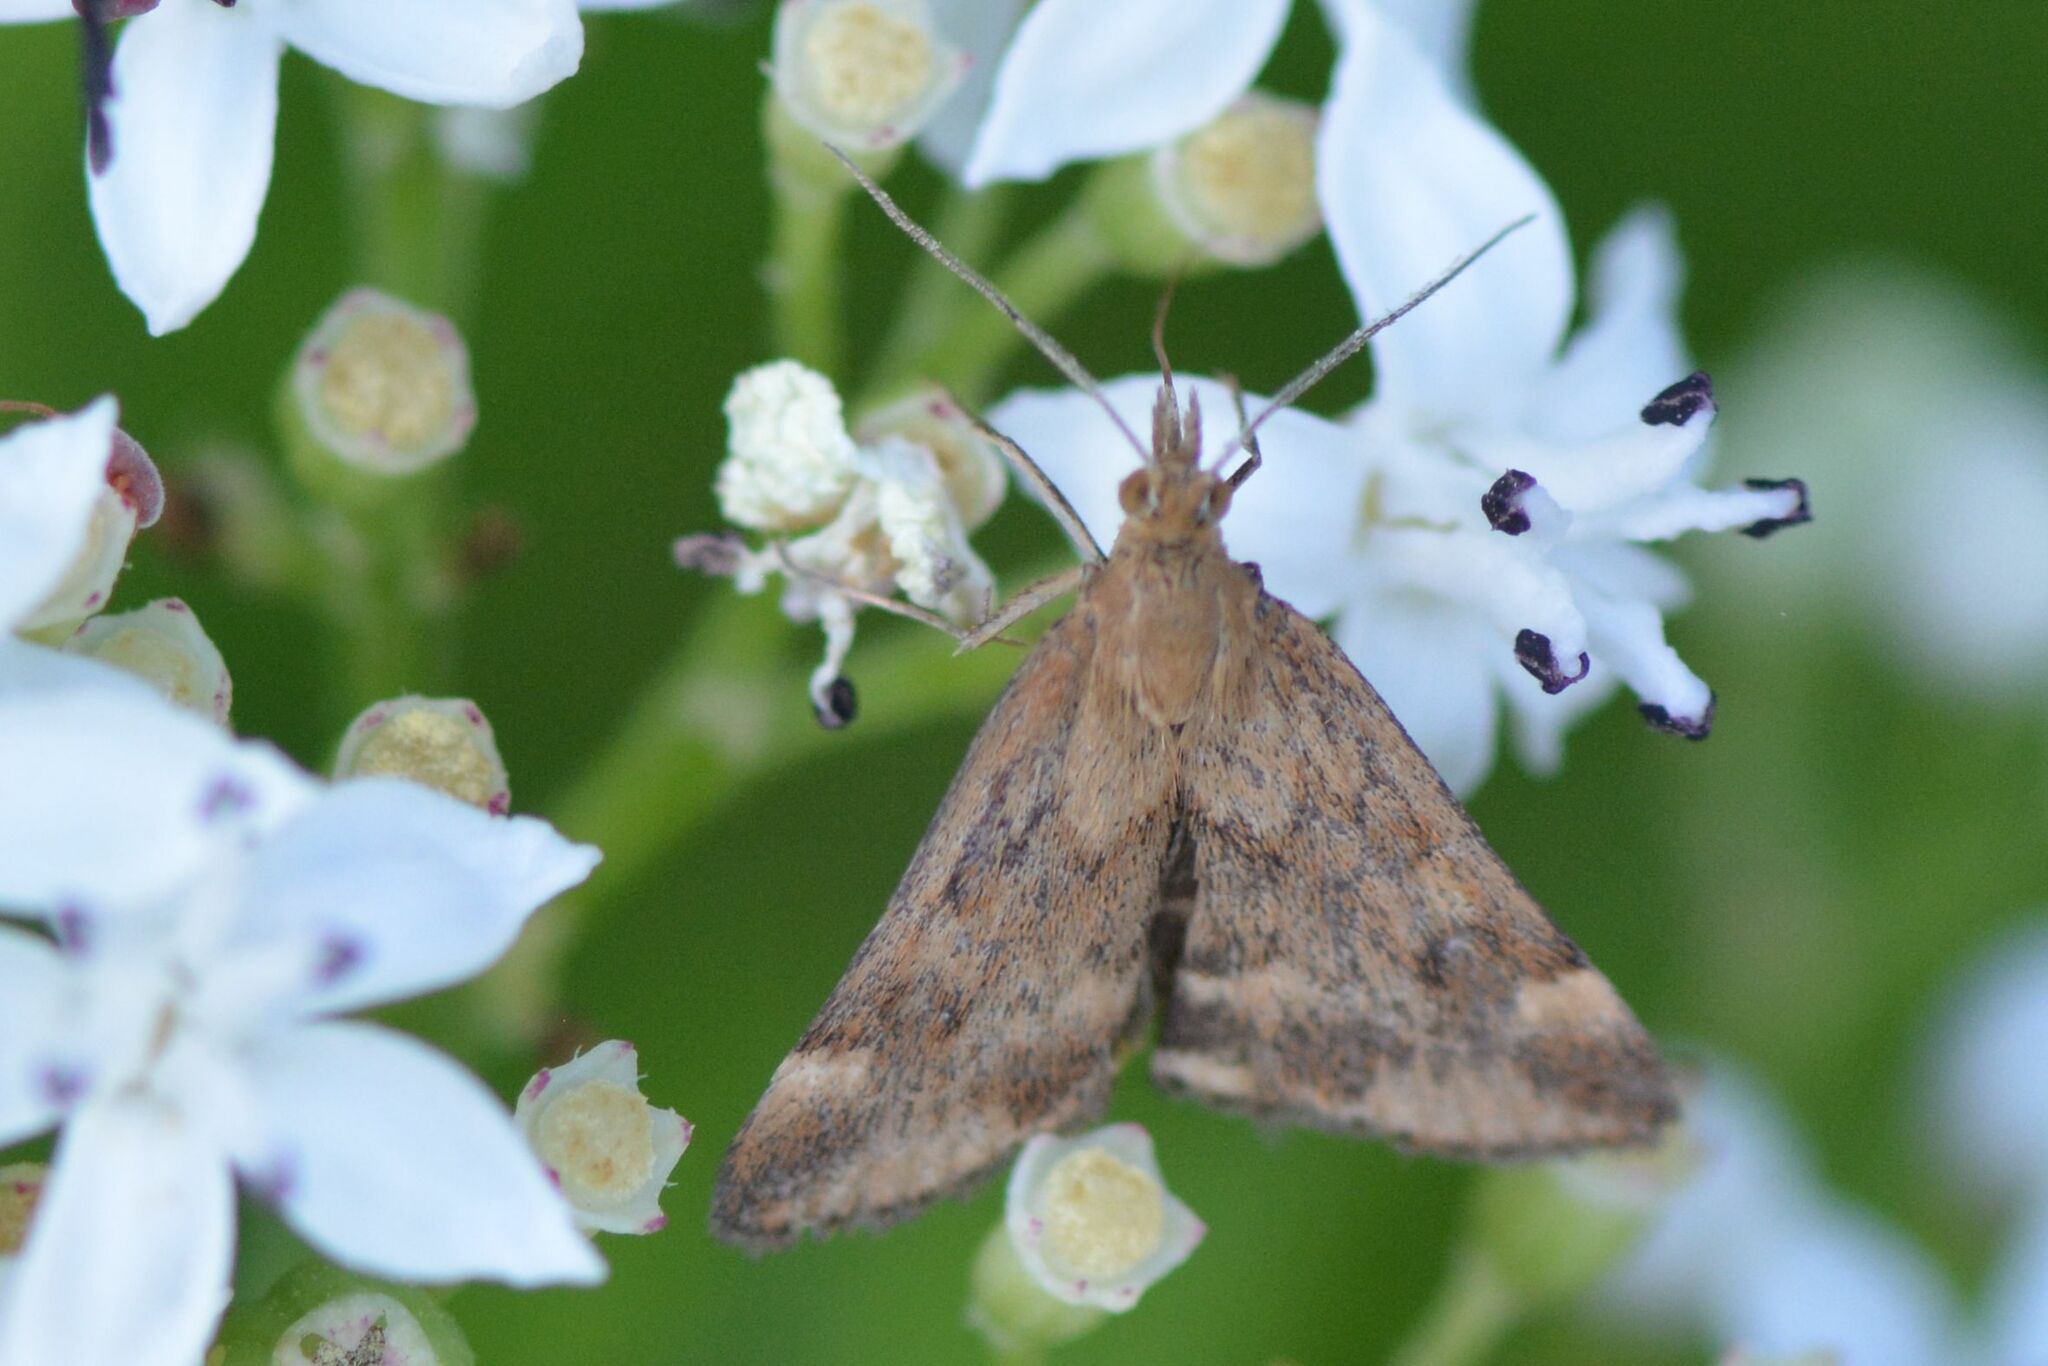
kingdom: Animalia
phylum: Arthropoda
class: Insecta
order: Lepidoptera
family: Crambidae
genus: Pyrausta
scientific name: Pyrausta despicata
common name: Straw-barred pearl
